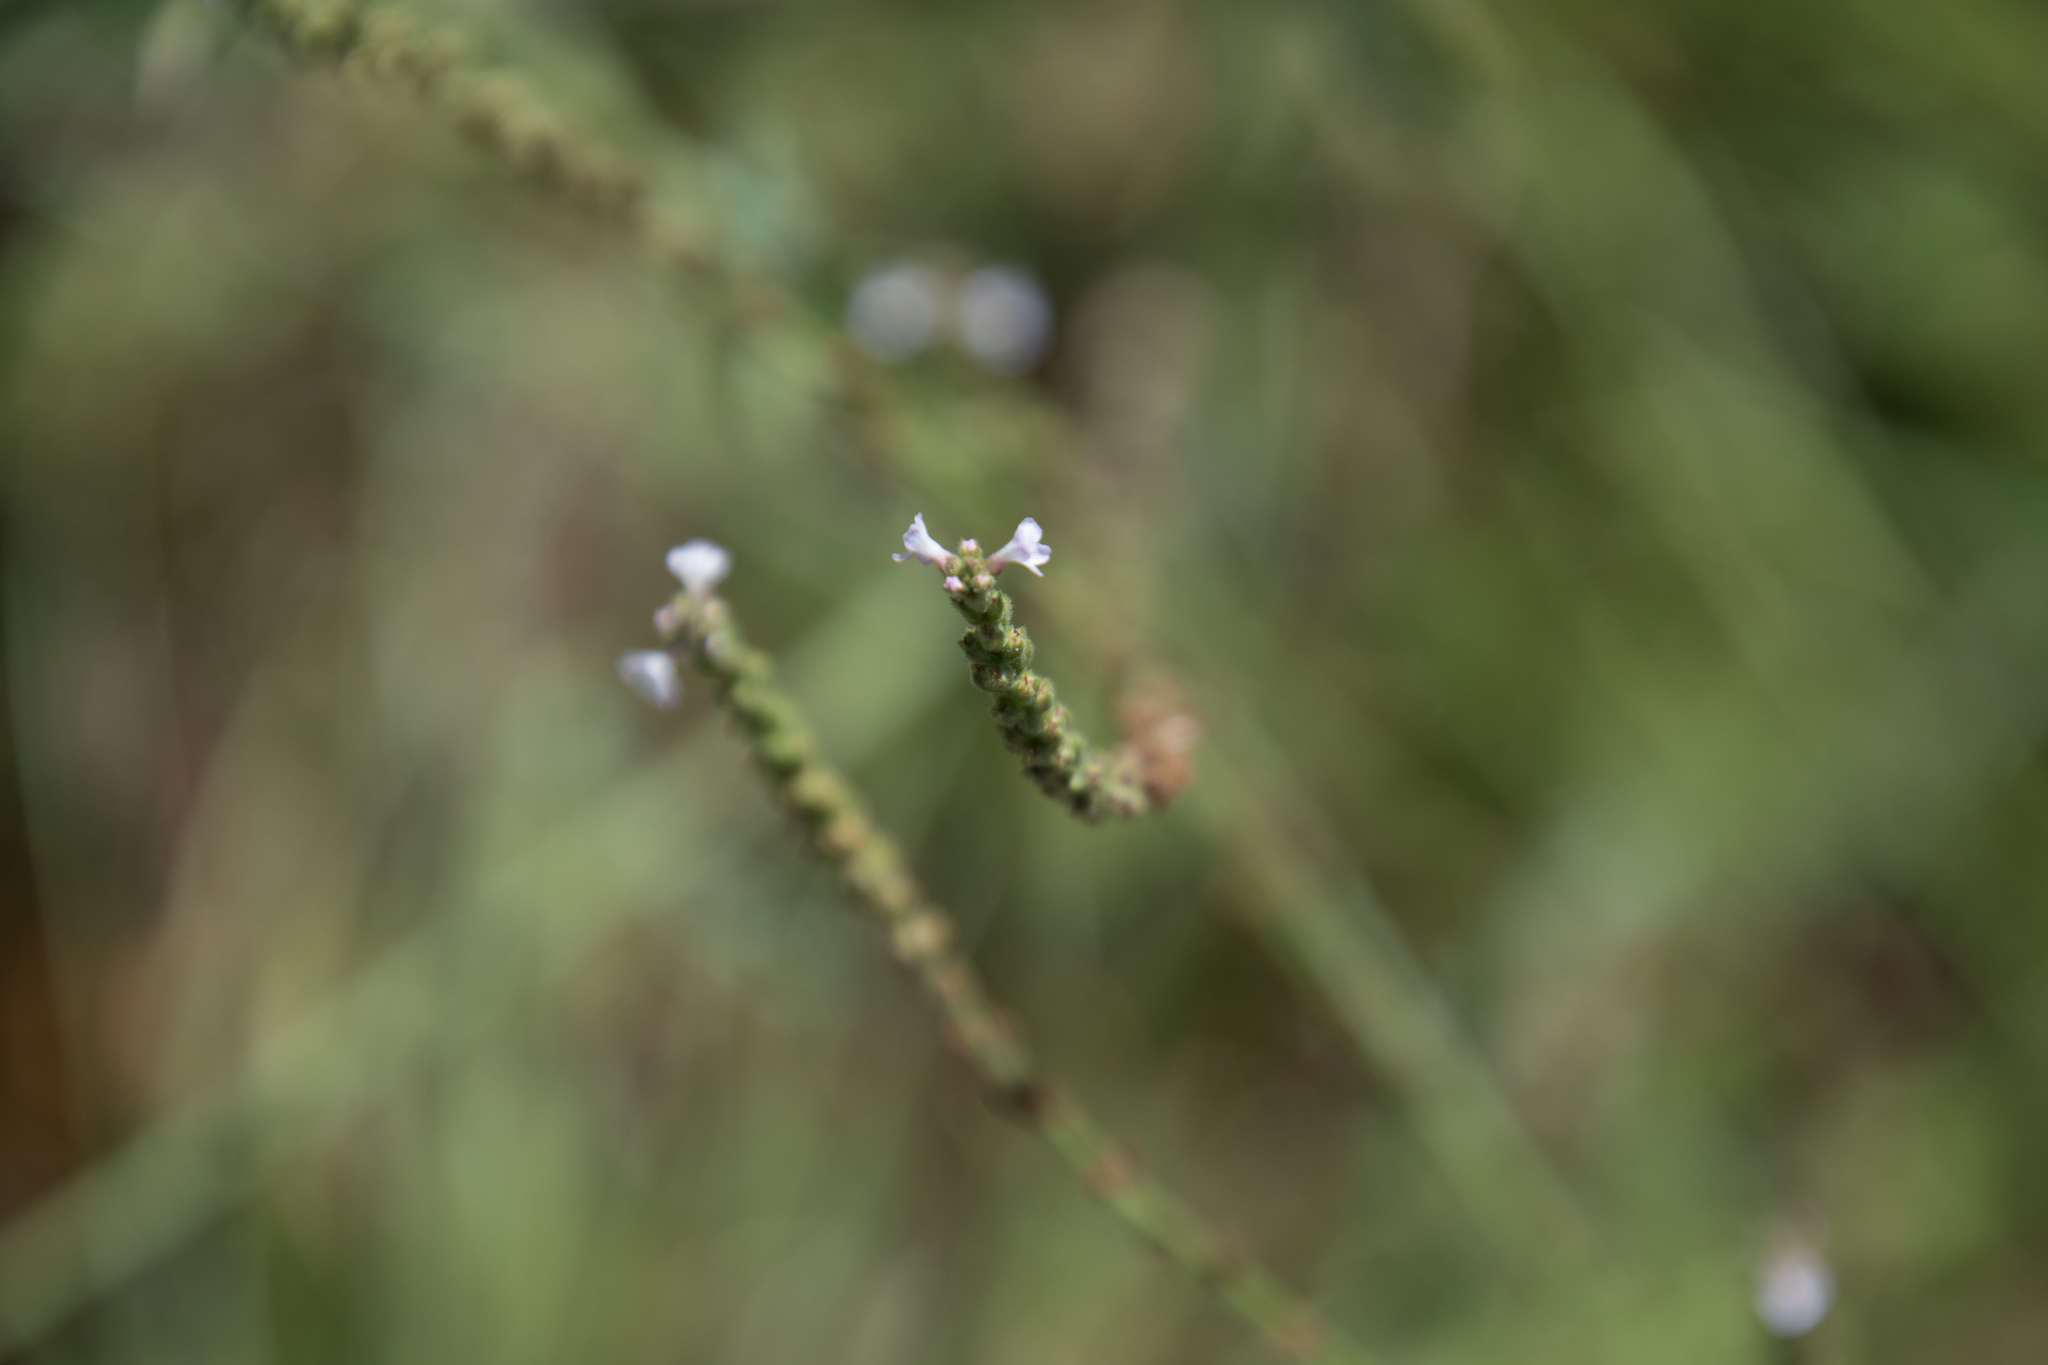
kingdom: Plantae
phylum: Tracheophyta
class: Magnoliopsida
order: Lamiales
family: Verbenaceae
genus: Verbena
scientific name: Verbena officinalis
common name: Vervain
